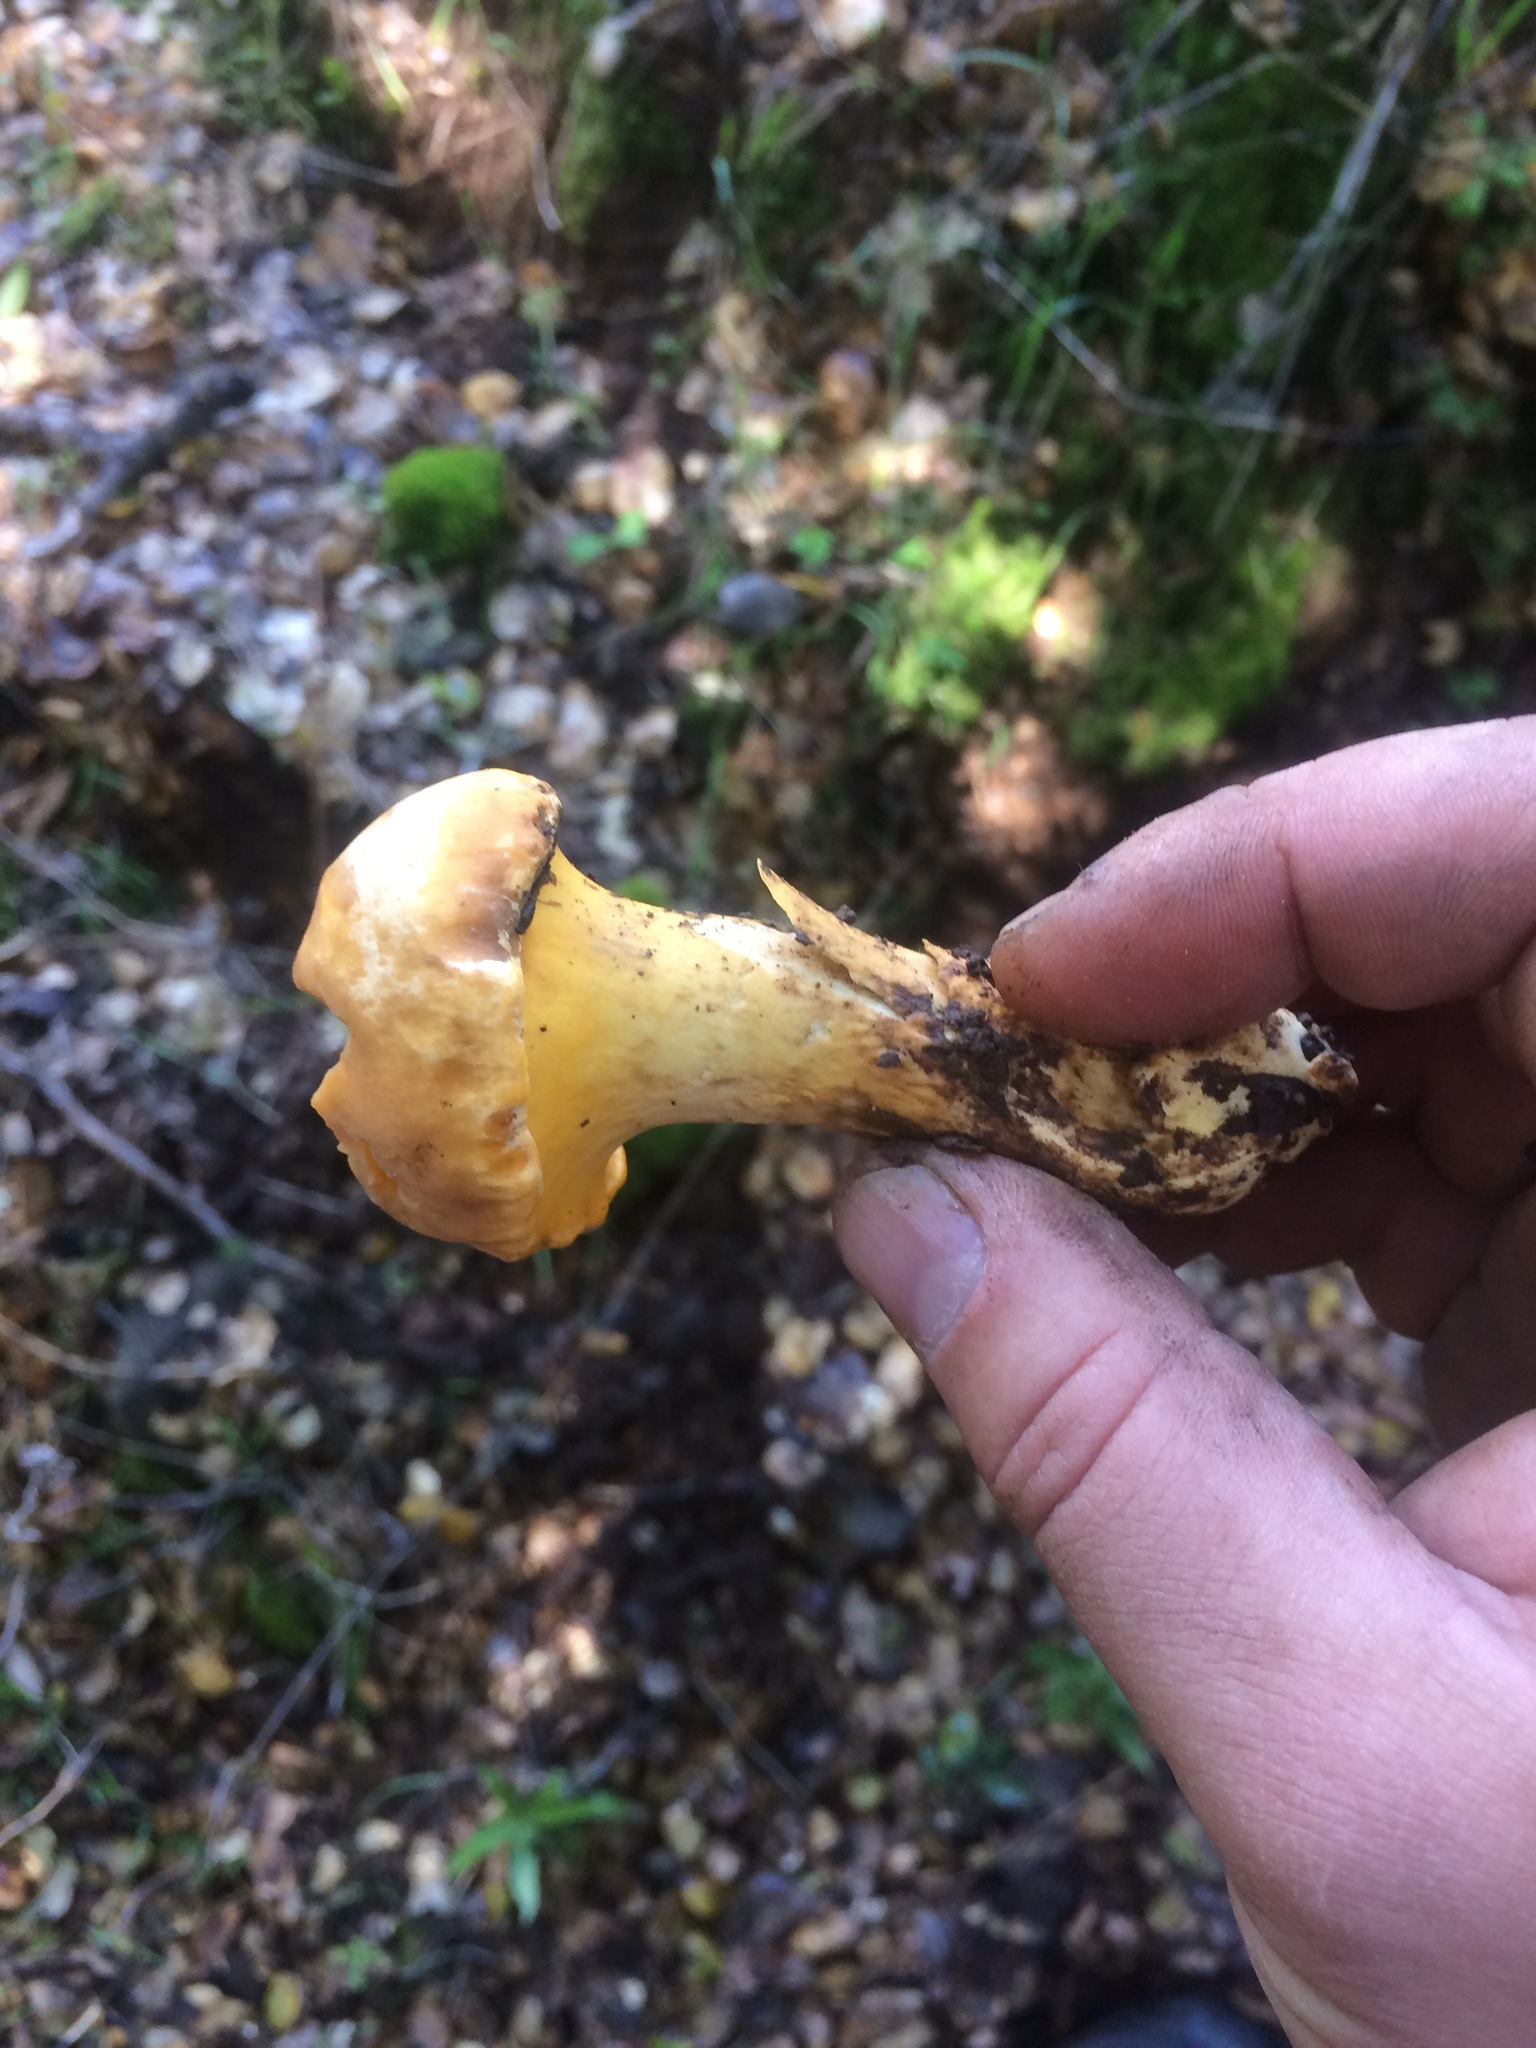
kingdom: Fungi
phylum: Basidiomycota
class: Agaricomycetes
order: Cantharellales
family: Hydnaceae
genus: Cantharellus
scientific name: Cantharellus californicus
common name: California golden chanterelle
